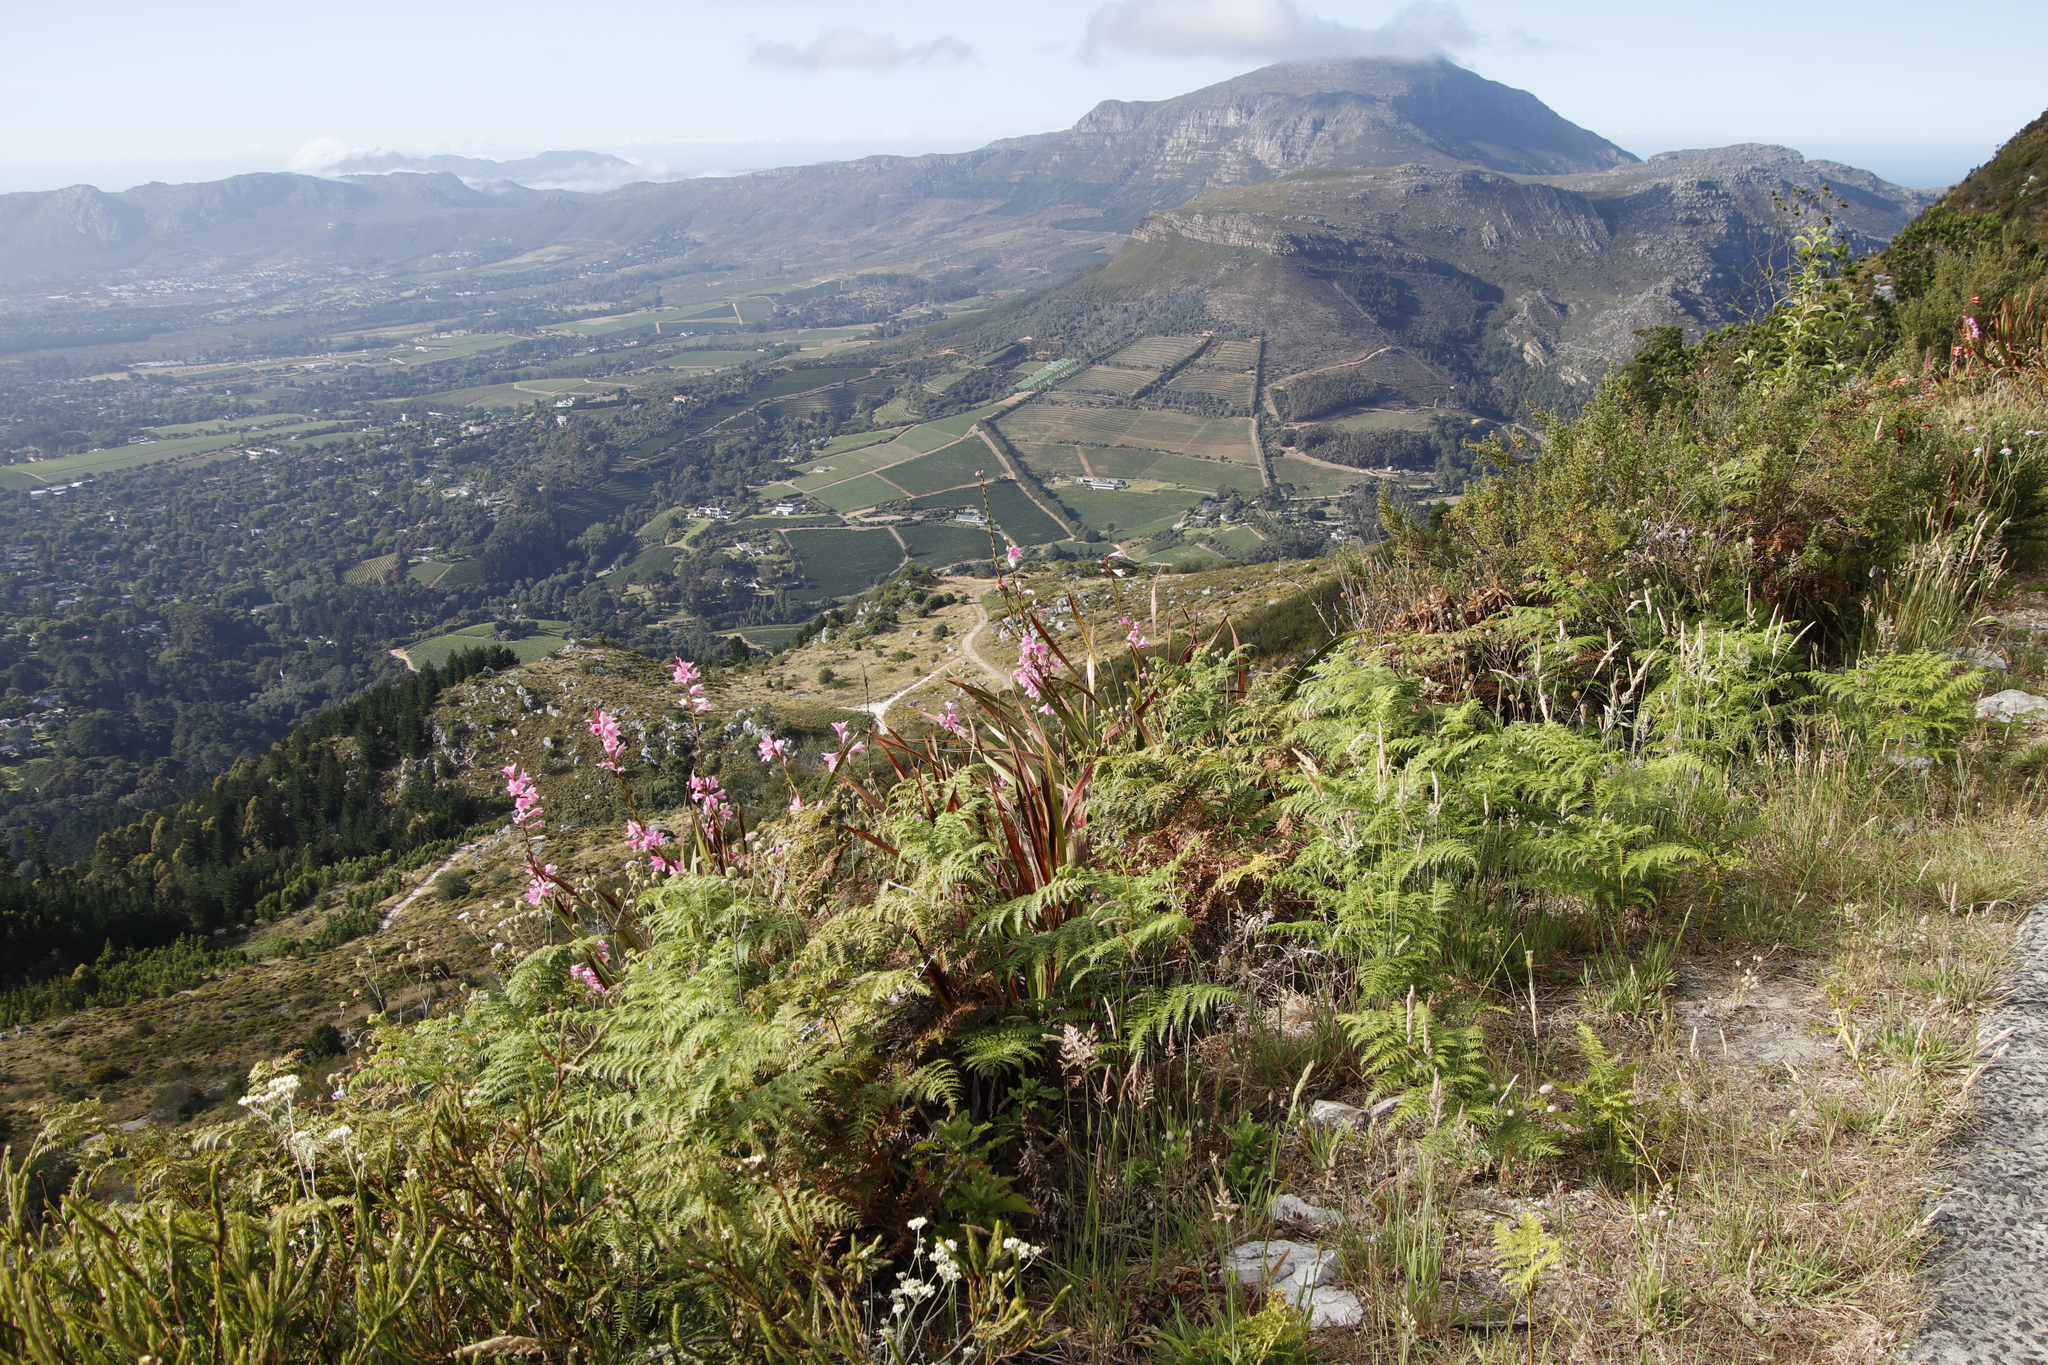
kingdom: Plantae
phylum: Tracheophyta
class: Liliopsida
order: Asparagales
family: Iridaceae
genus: Watsonia
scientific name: Watsonia borbonica
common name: Bugle-lily
